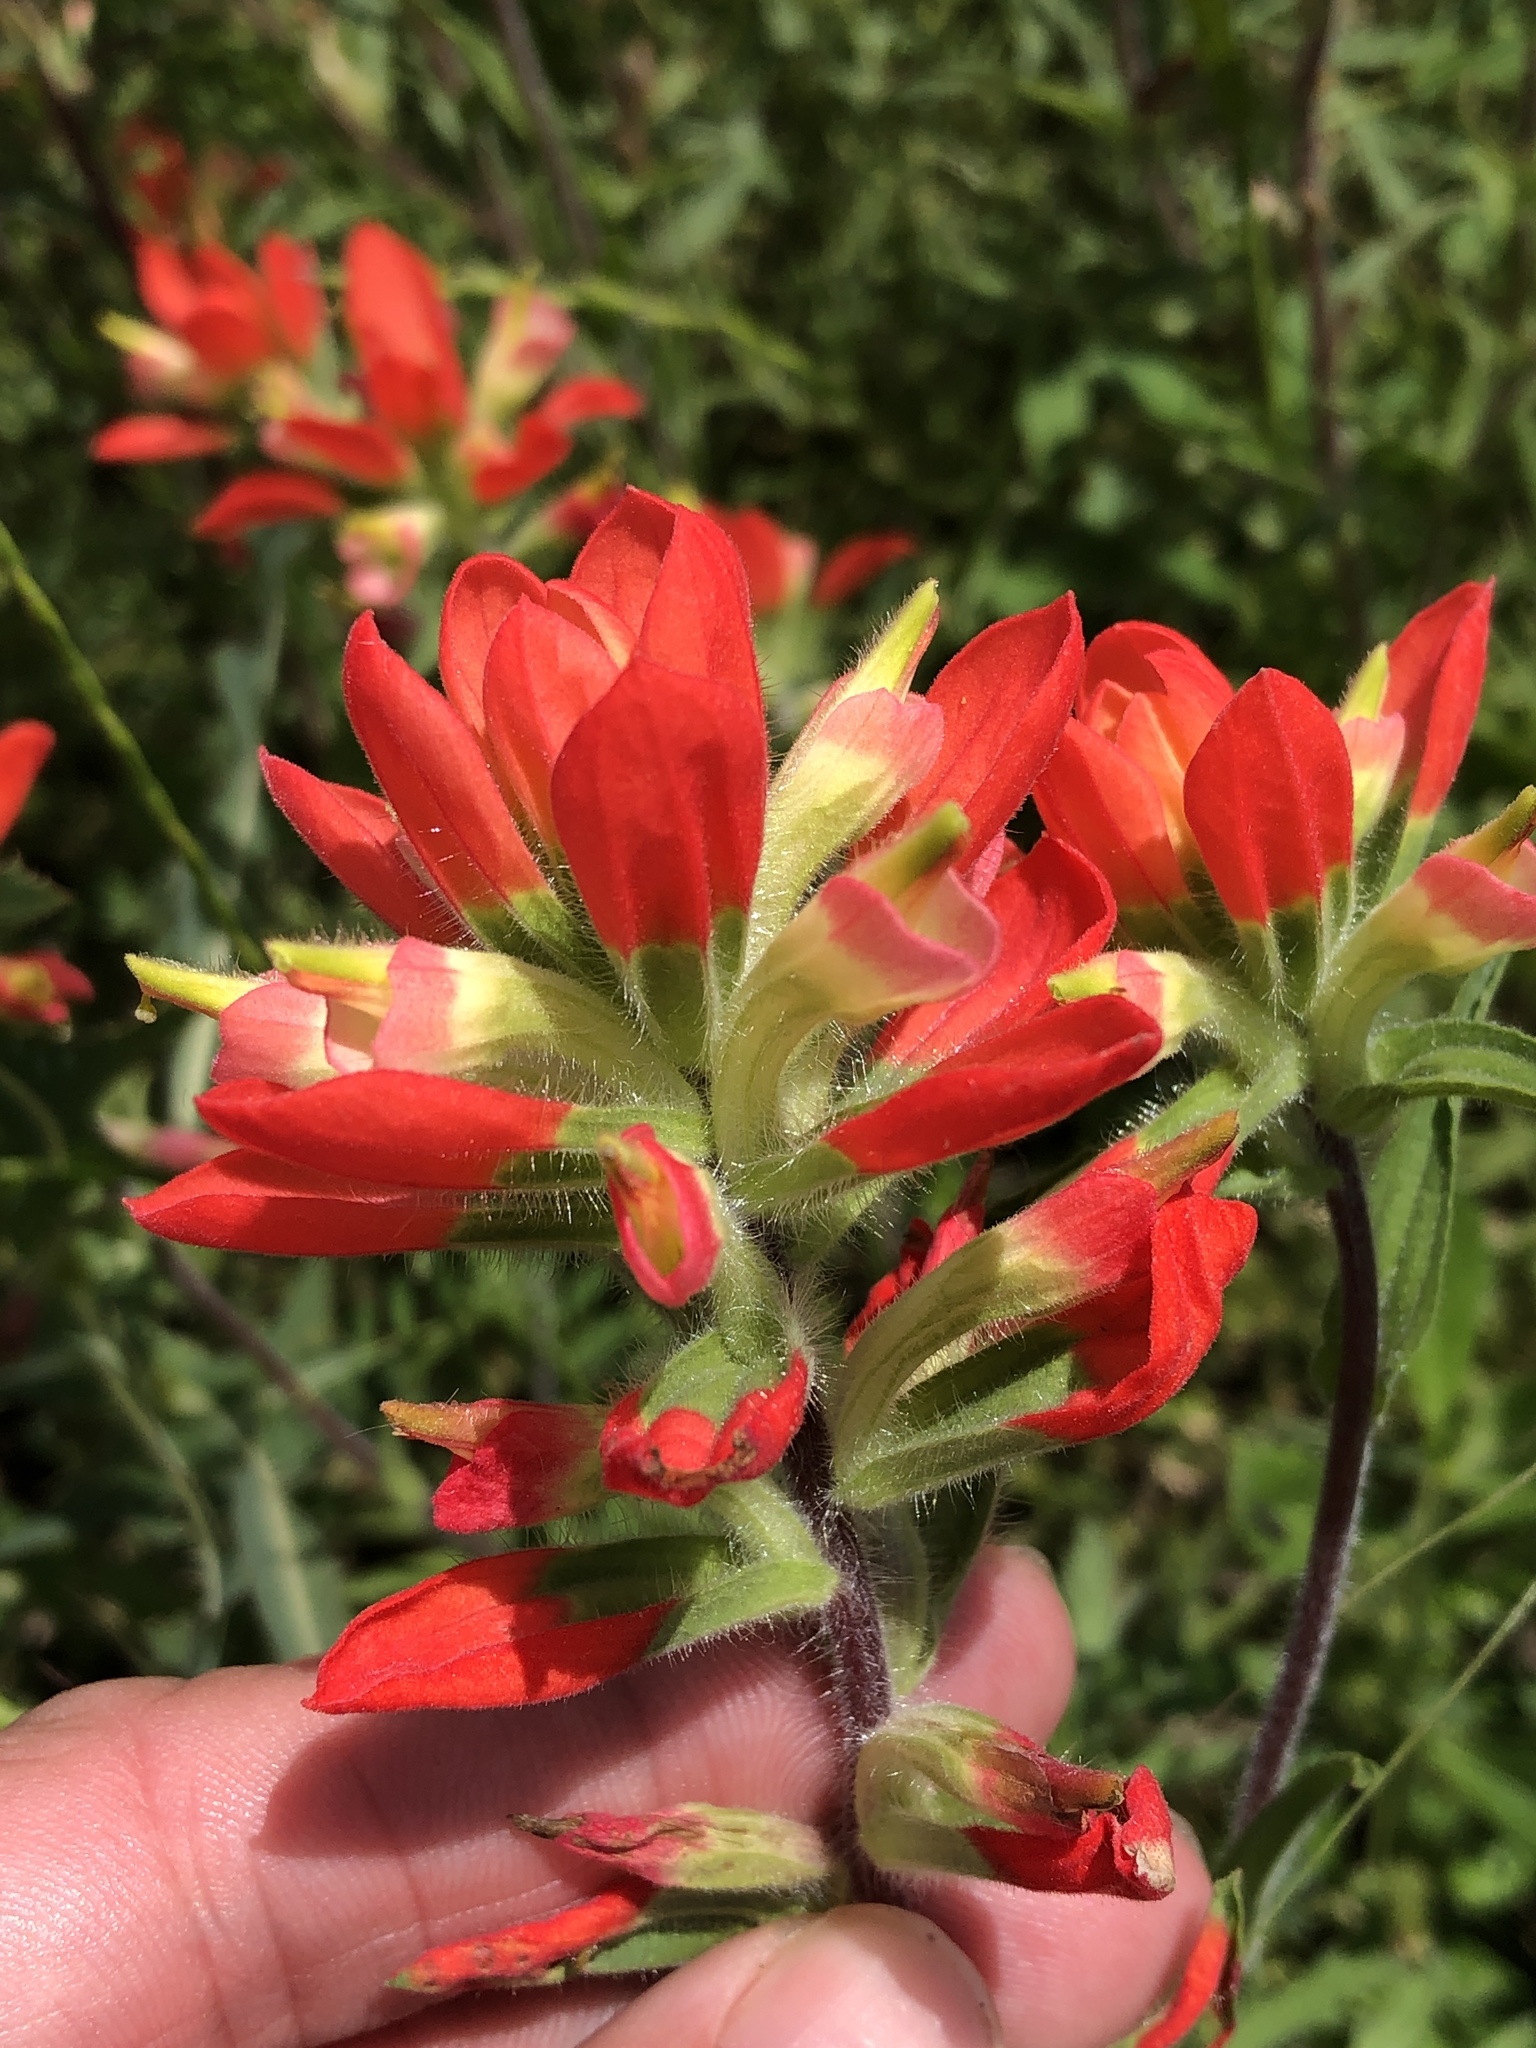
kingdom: Plantae
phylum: Tracheophyta
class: Magnoliopsida
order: Lamiales
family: Orobanchaceae
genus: Castilleja
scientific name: Castilleja indivisa
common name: Texas paintbrush
